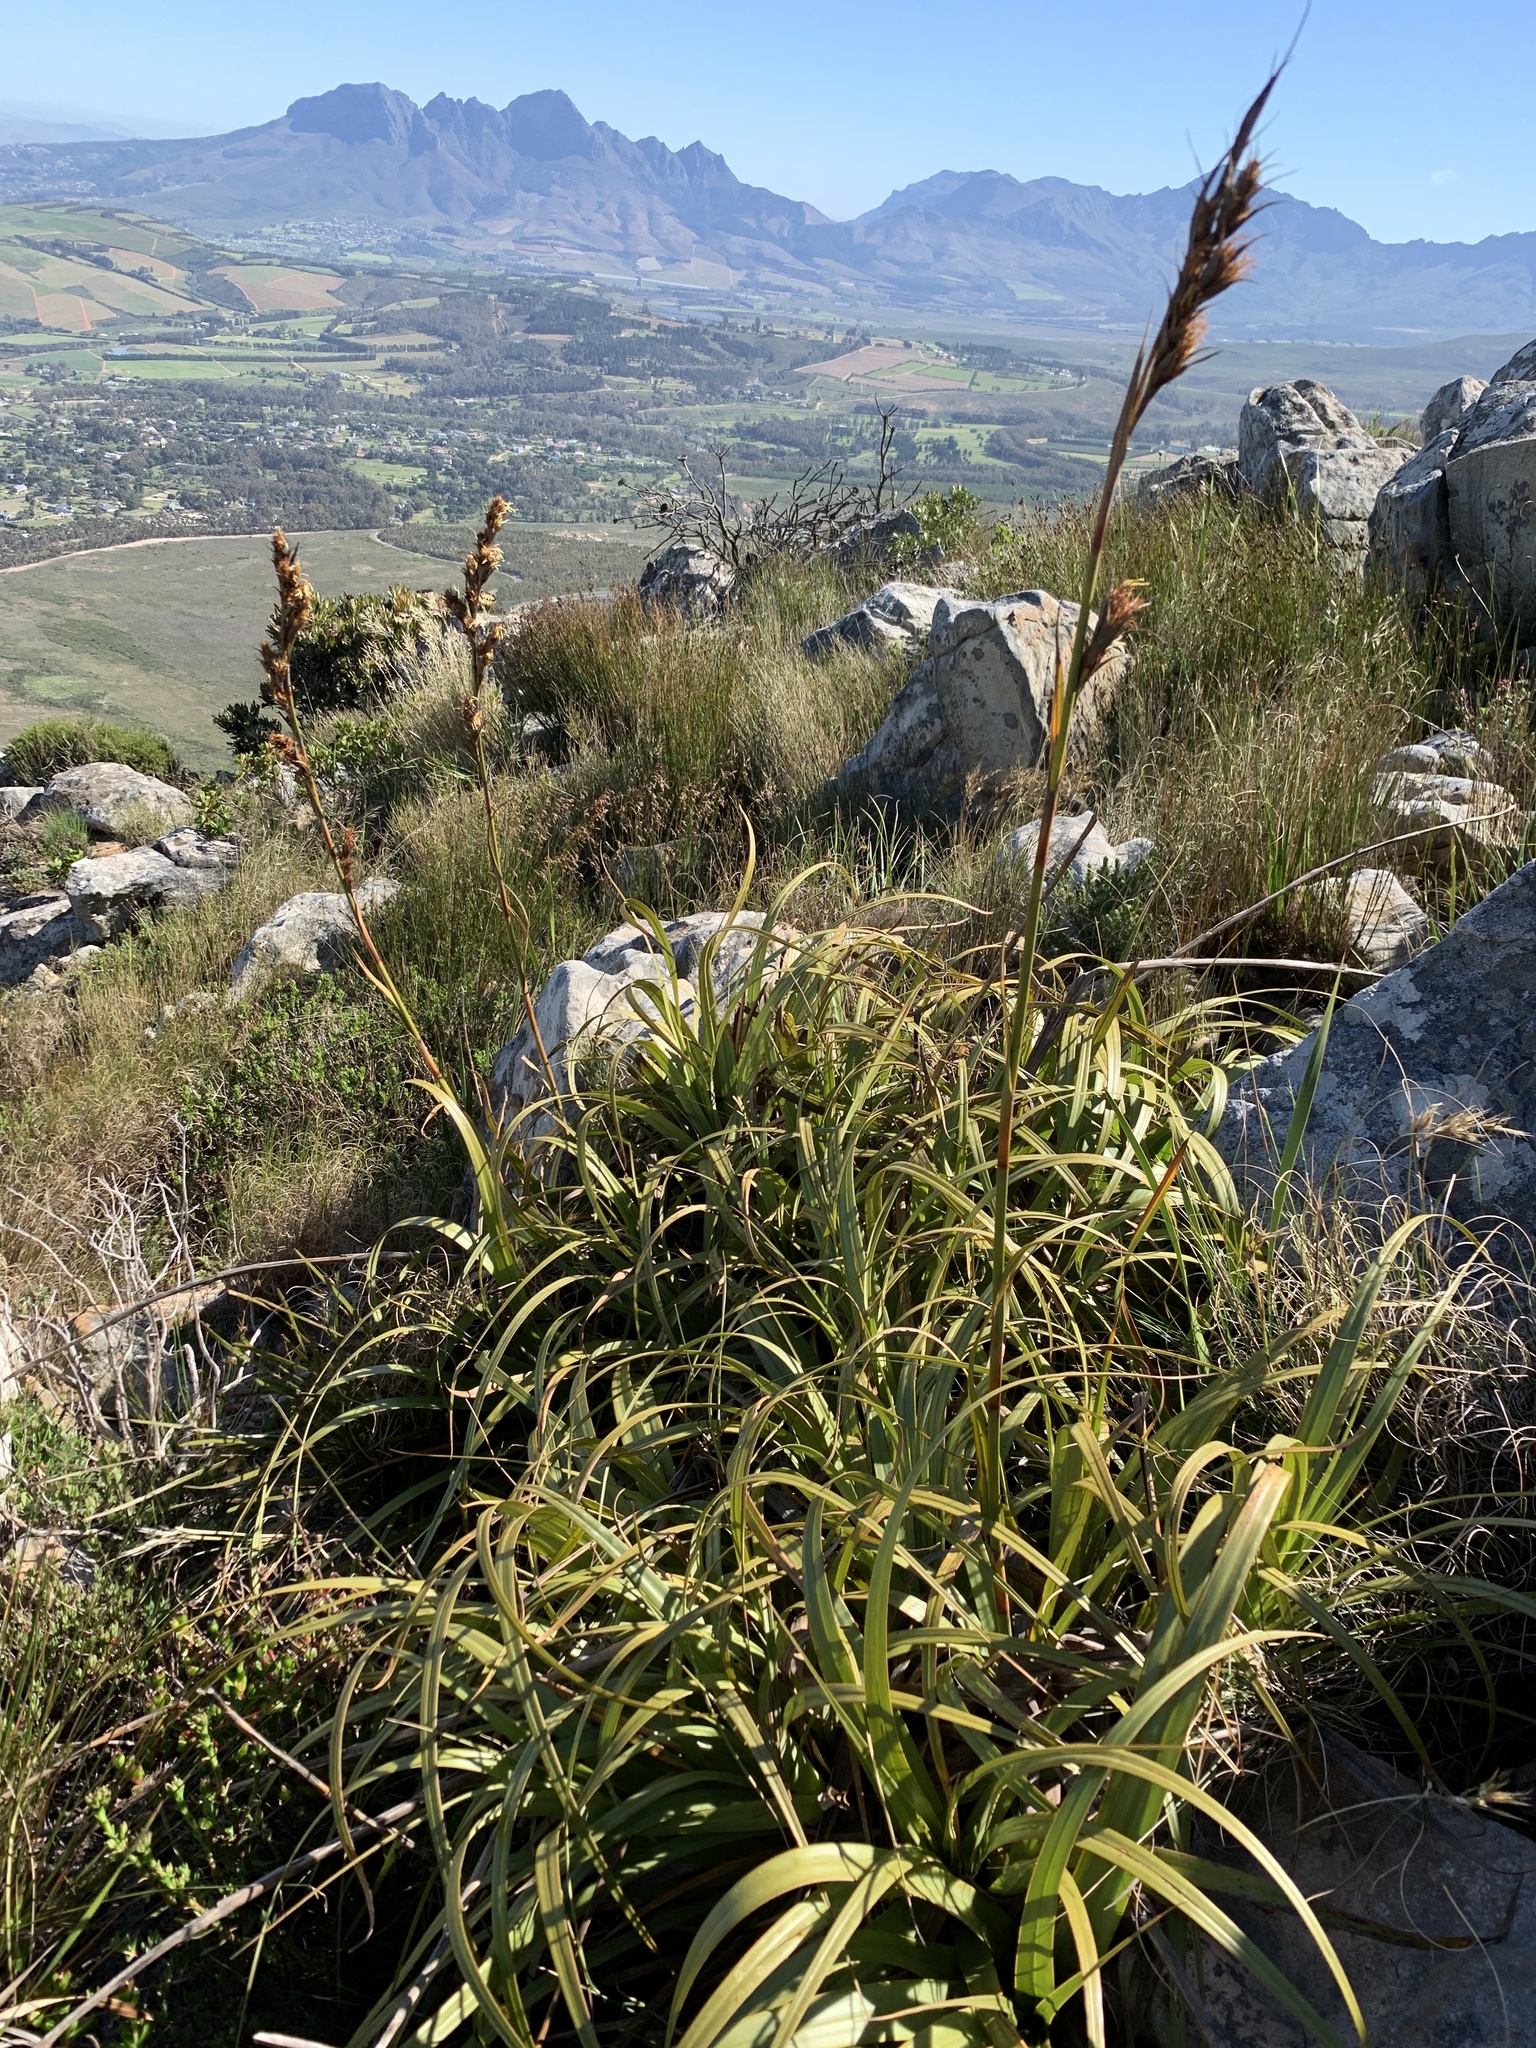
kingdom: Plantae
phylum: Tracheophyta
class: Liliopsida
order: Poales
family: Cyperaceae
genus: Tetraria
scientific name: Tetraria thermalis
